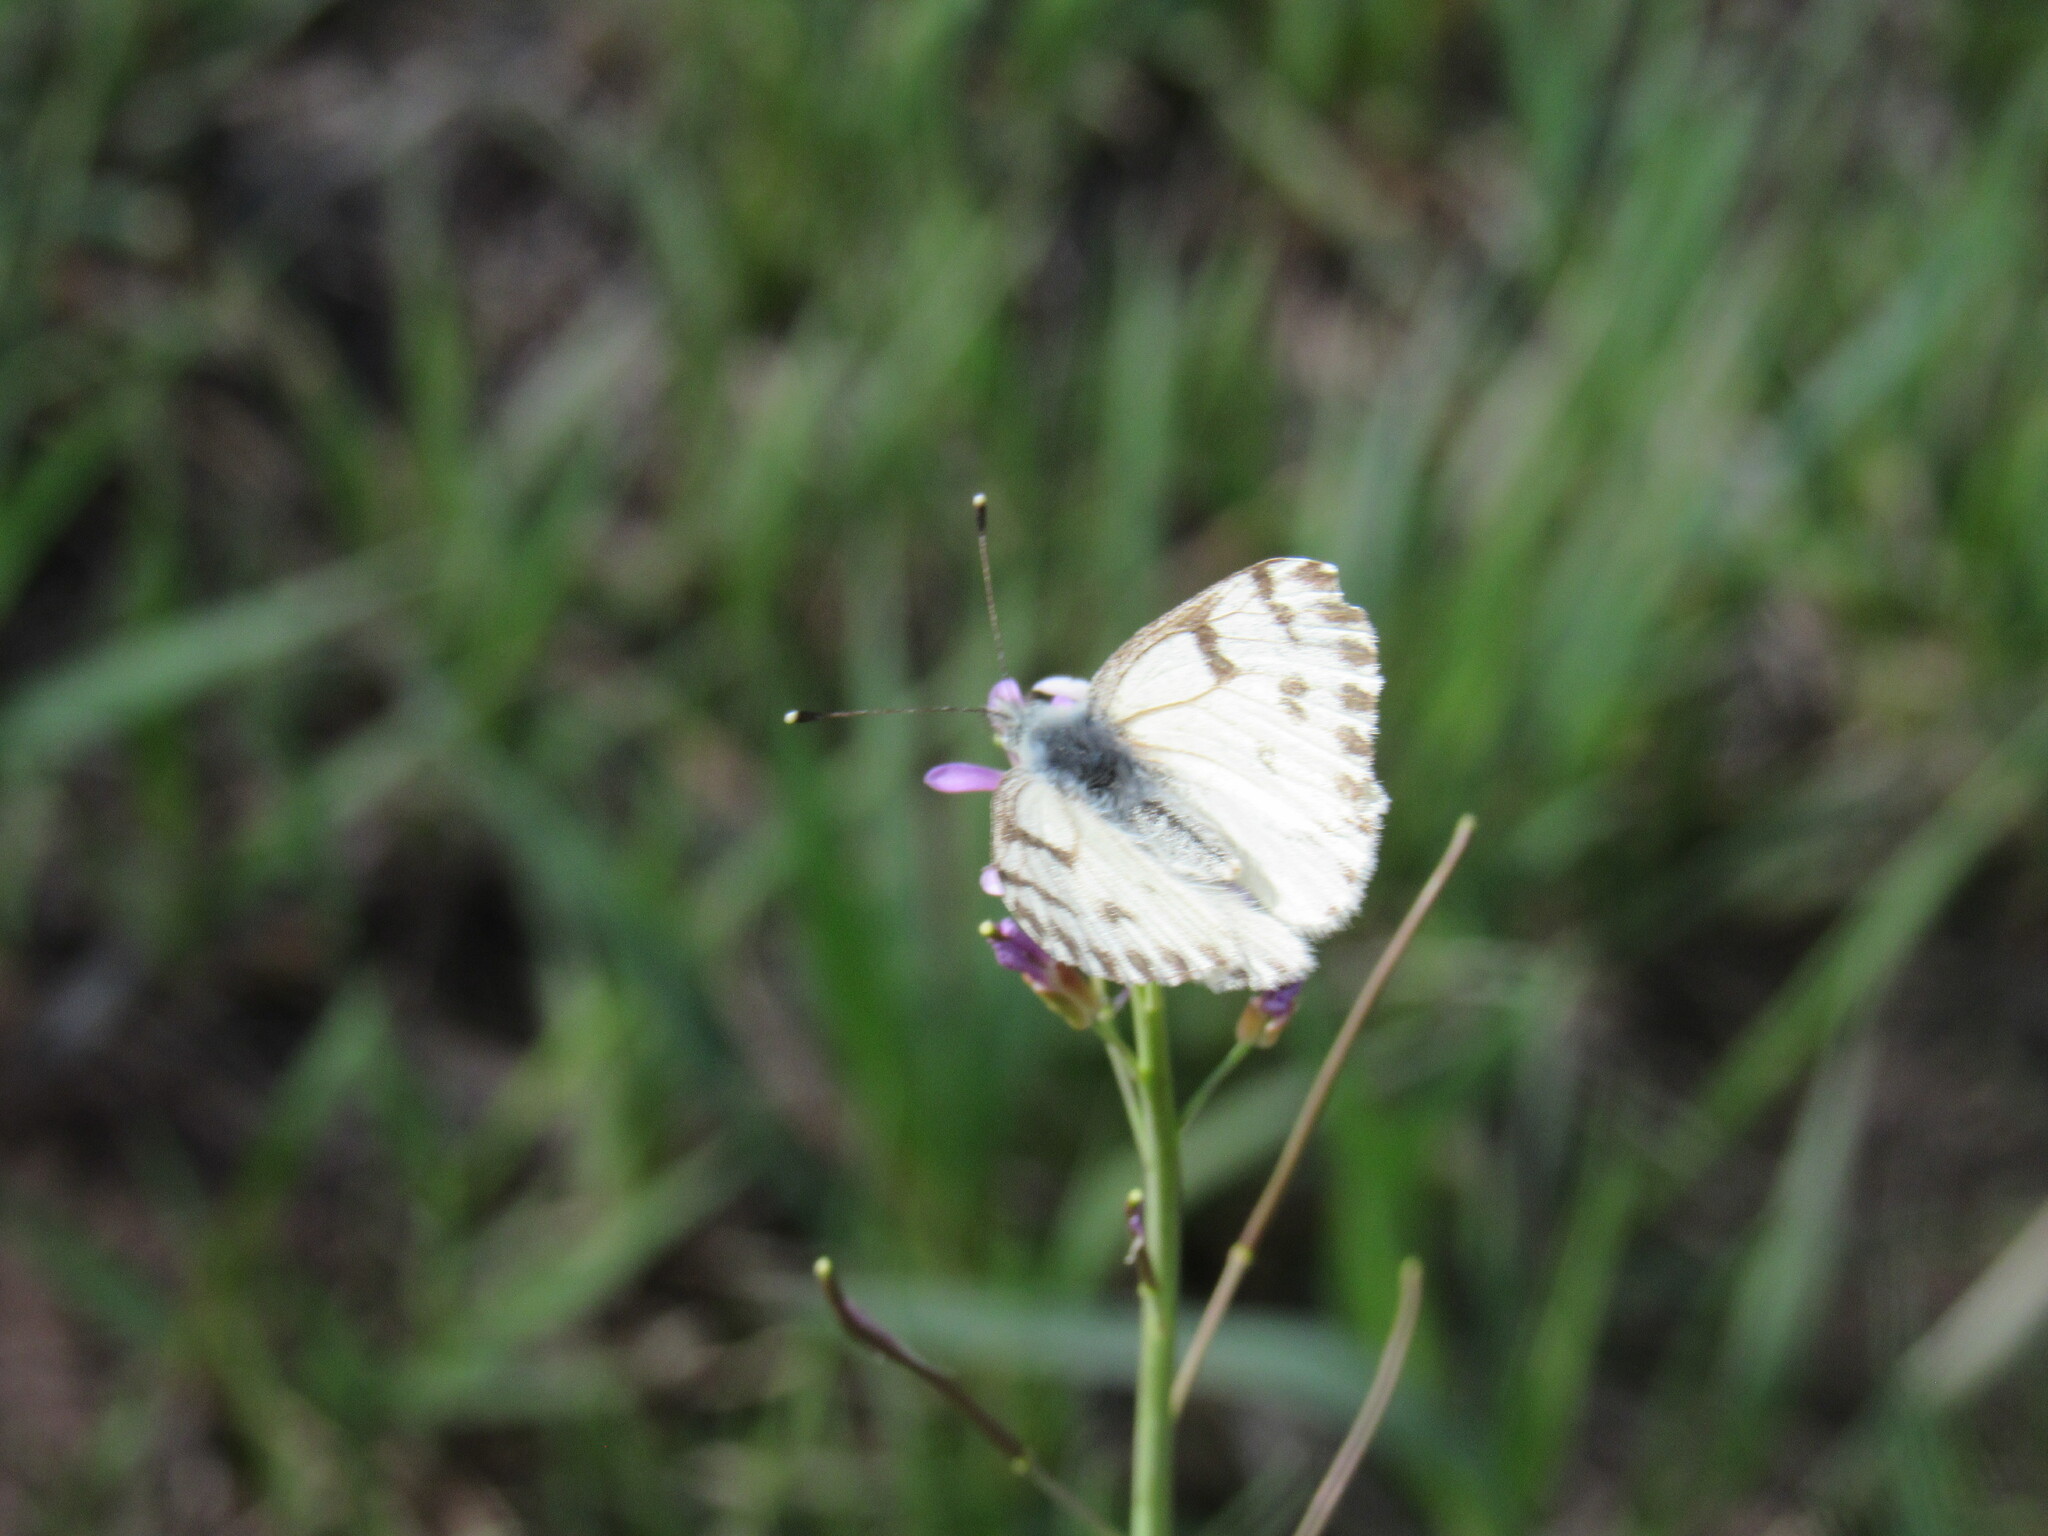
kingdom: Animalia
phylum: Arthropoda
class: Insecta
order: Lepidoptera
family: Pieridae
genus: Pontia
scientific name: Pontia sisymbrii
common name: California white
